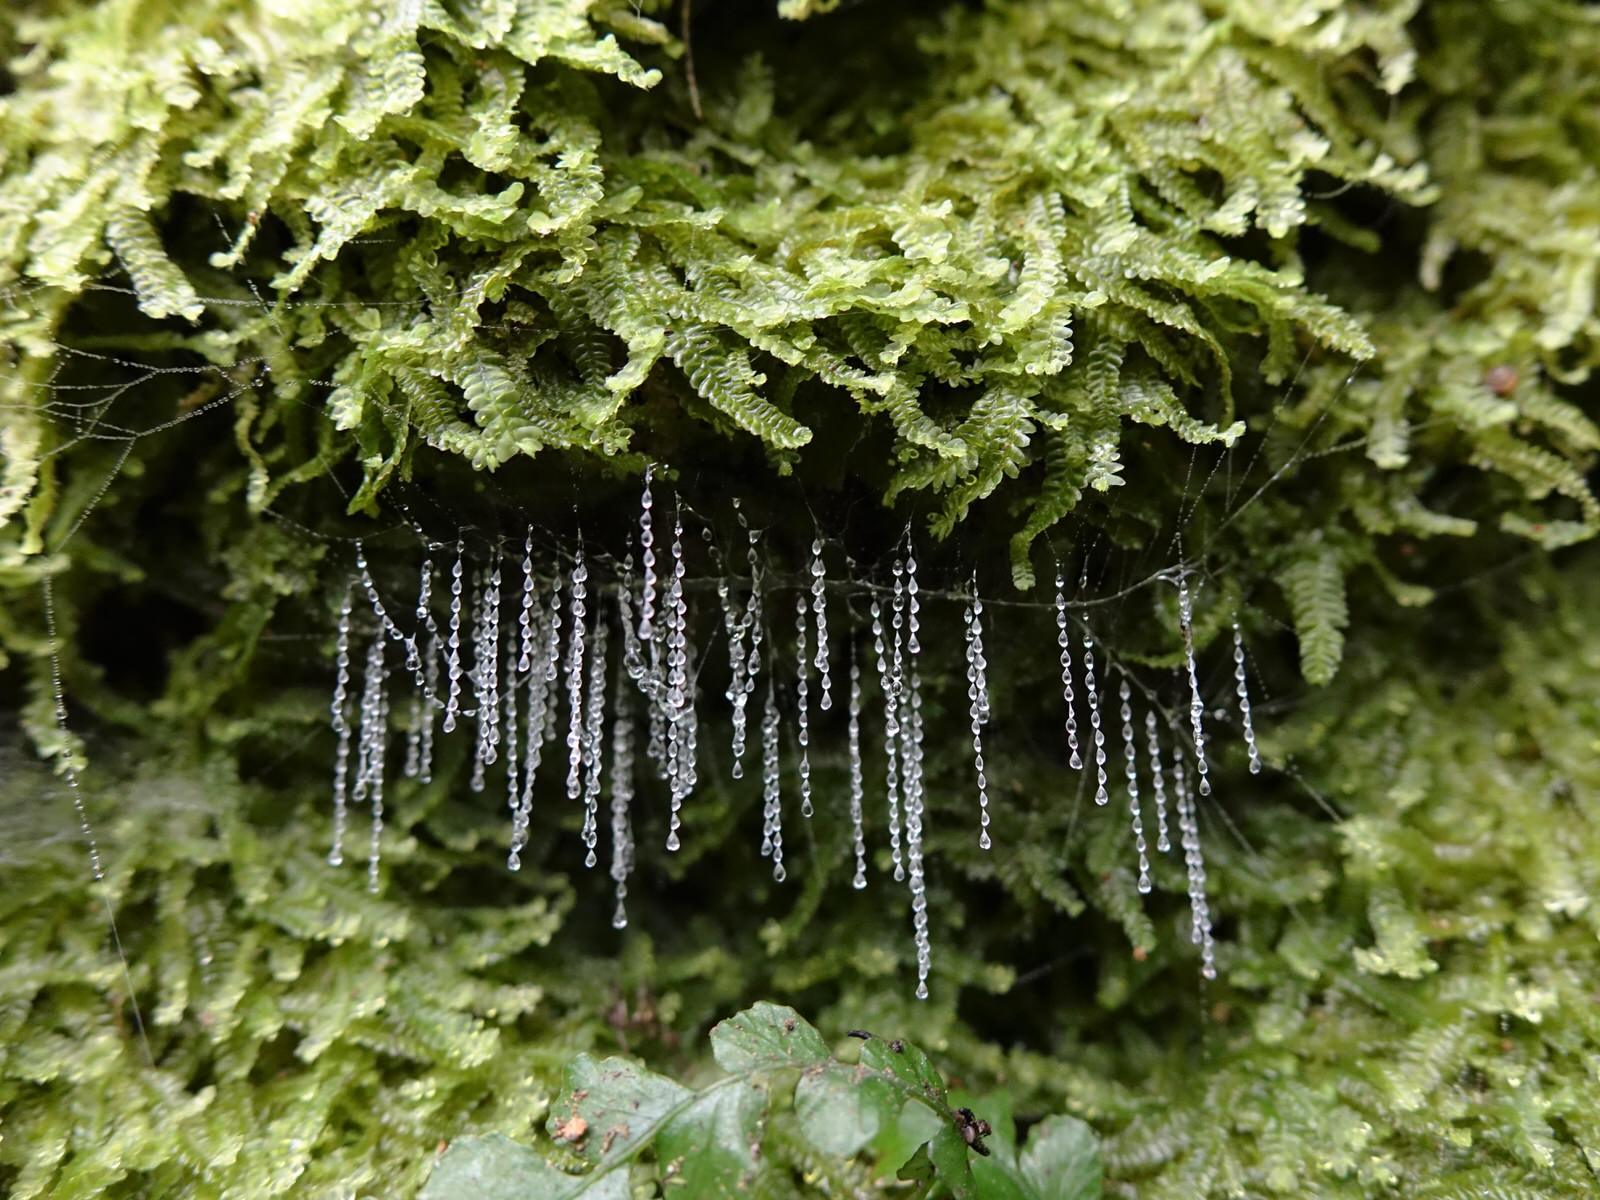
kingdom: Animalia
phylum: Arthropoda
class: Insecta
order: Diptera
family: Keroplatidae
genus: Arachnocampa
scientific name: Arachnocampa luminosa
